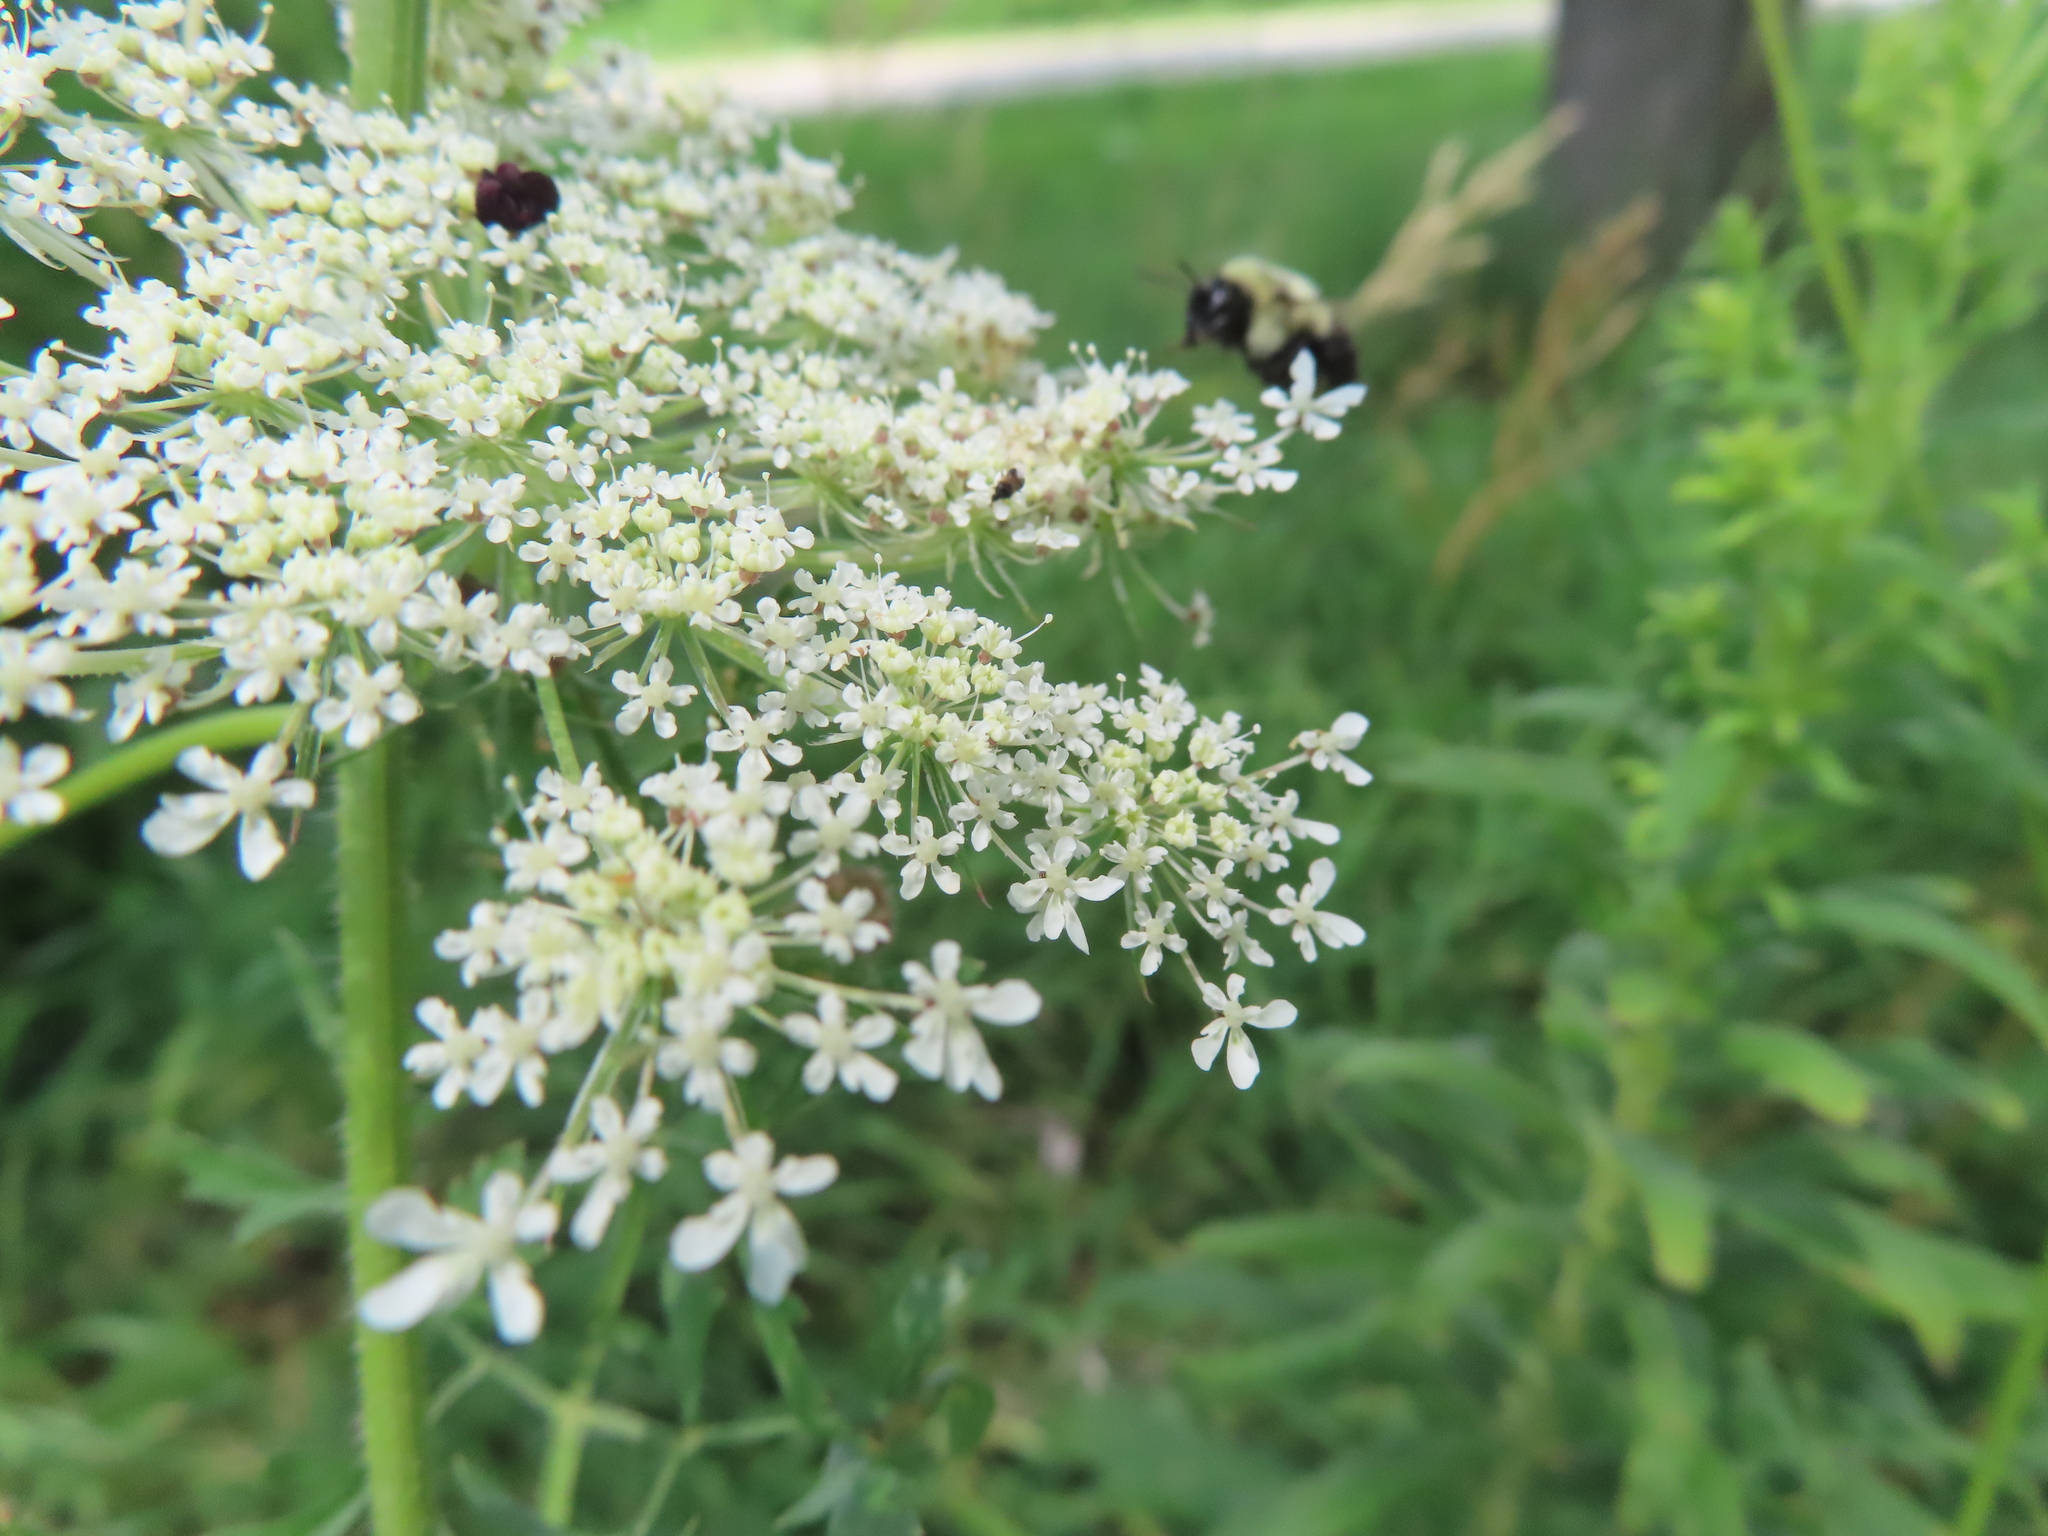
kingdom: Animalia
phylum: Arthropoda
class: Insecta
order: Hymenoptera
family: Apidae
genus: Bombus
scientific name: Bombus impatiens
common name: Common eastern bumble bee
